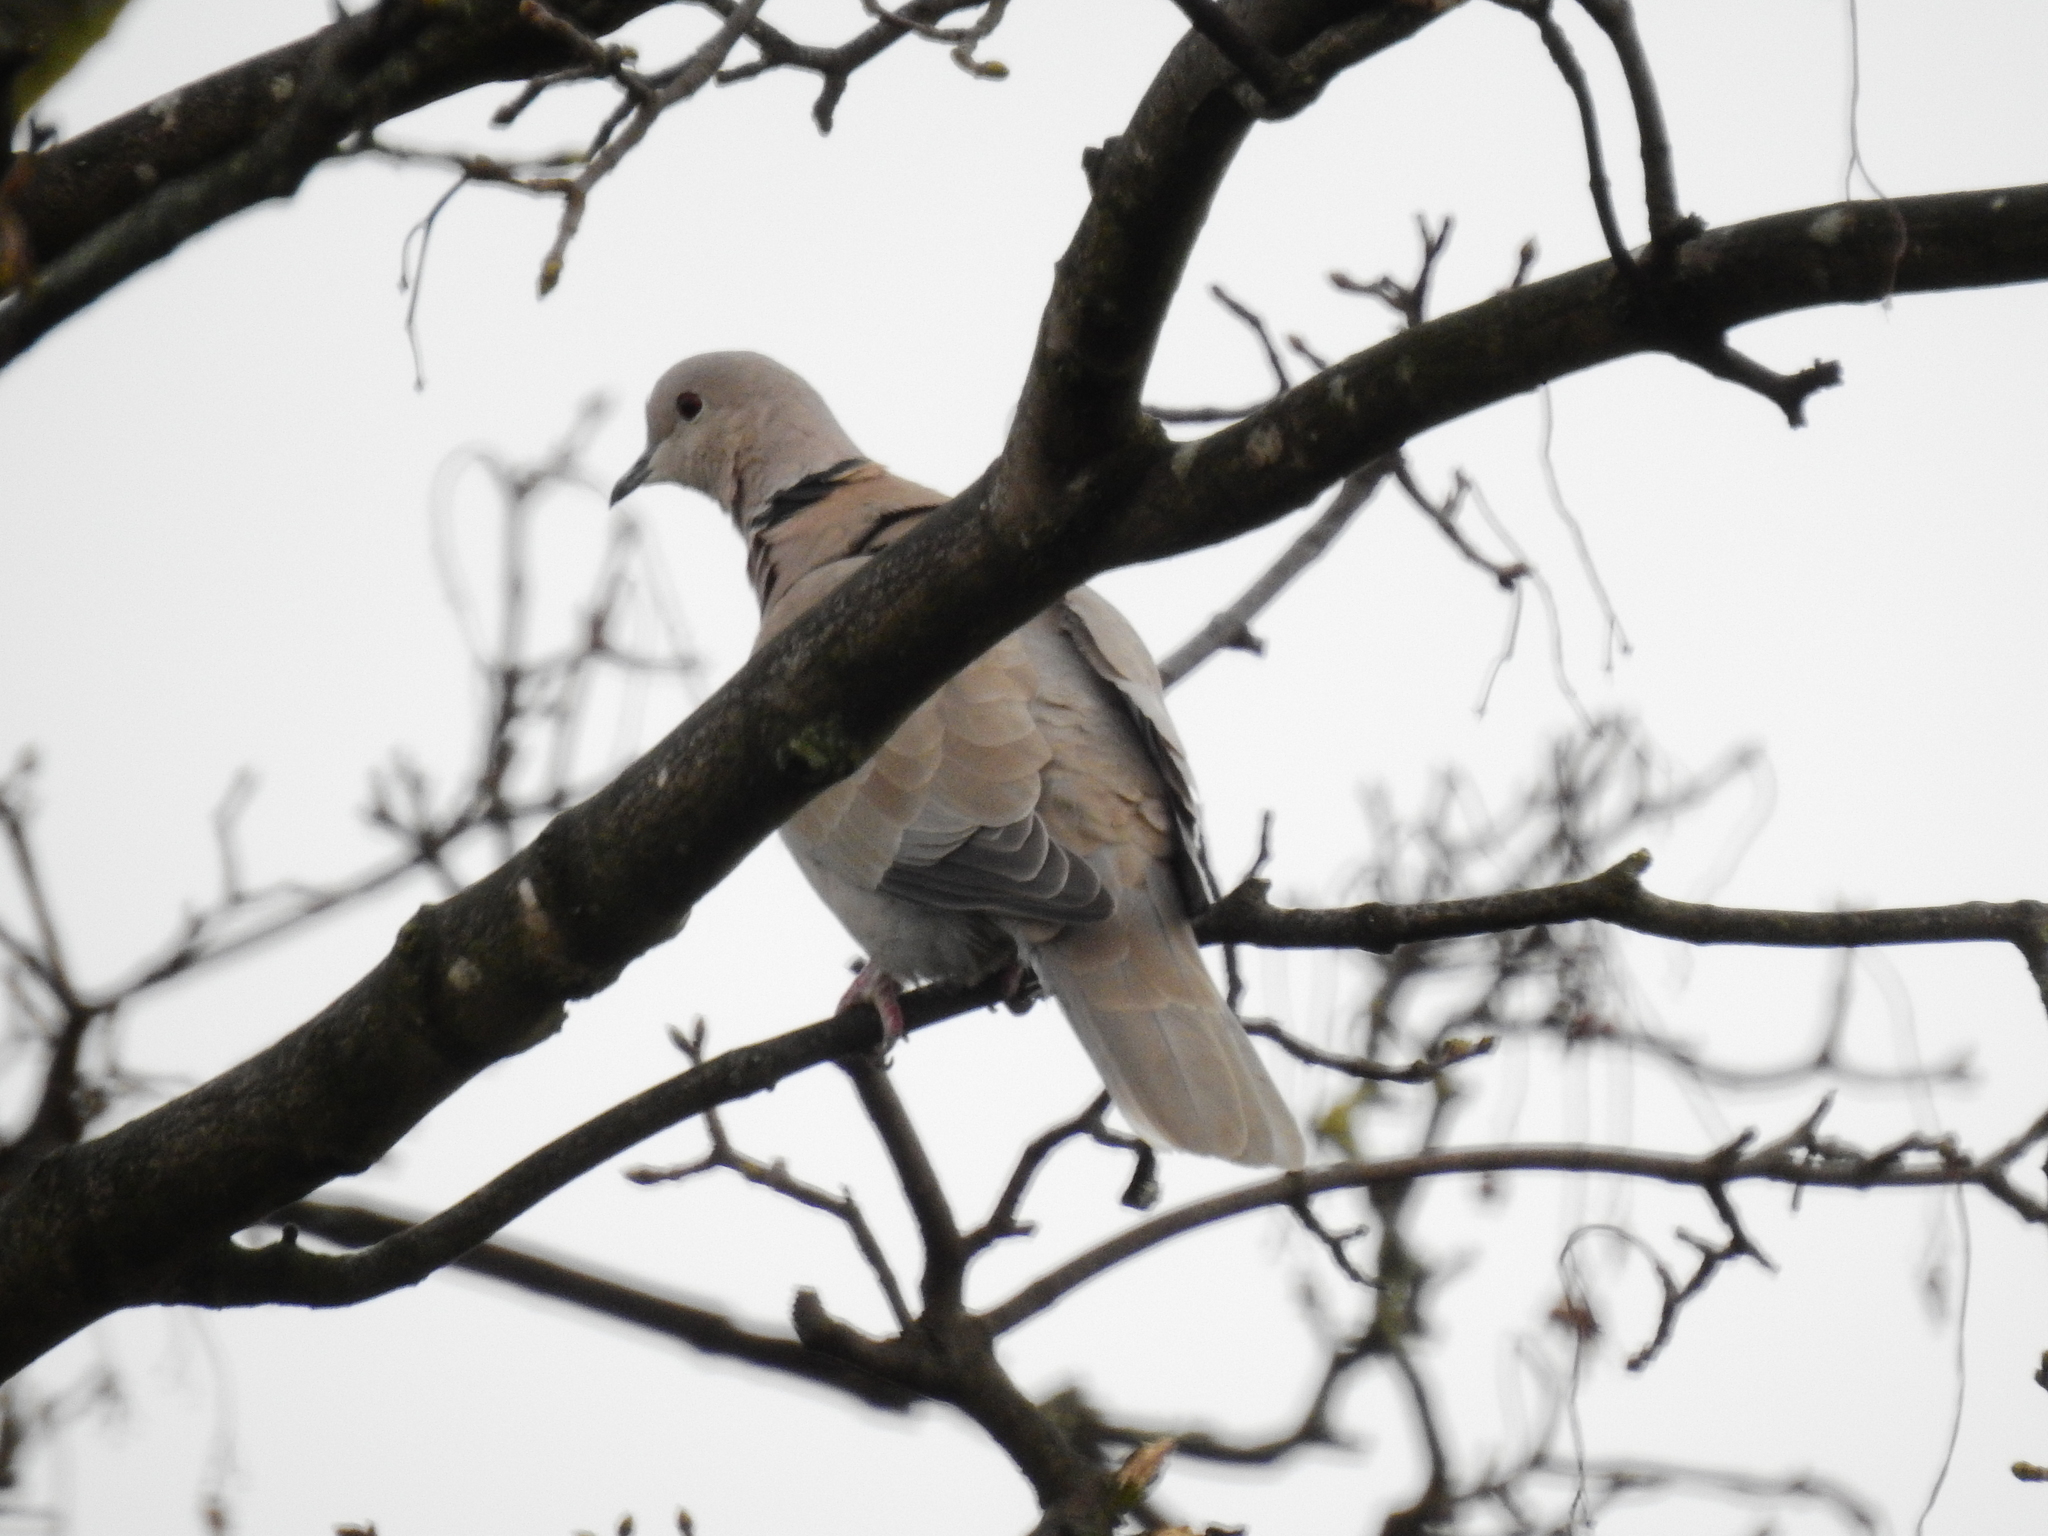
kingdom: Animalia
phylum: Chordata
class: Aves
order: Columbiformes
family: Columbidae
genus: Streptopelia
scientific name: Streptopelia decaocto
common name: Eurasian collared dove
